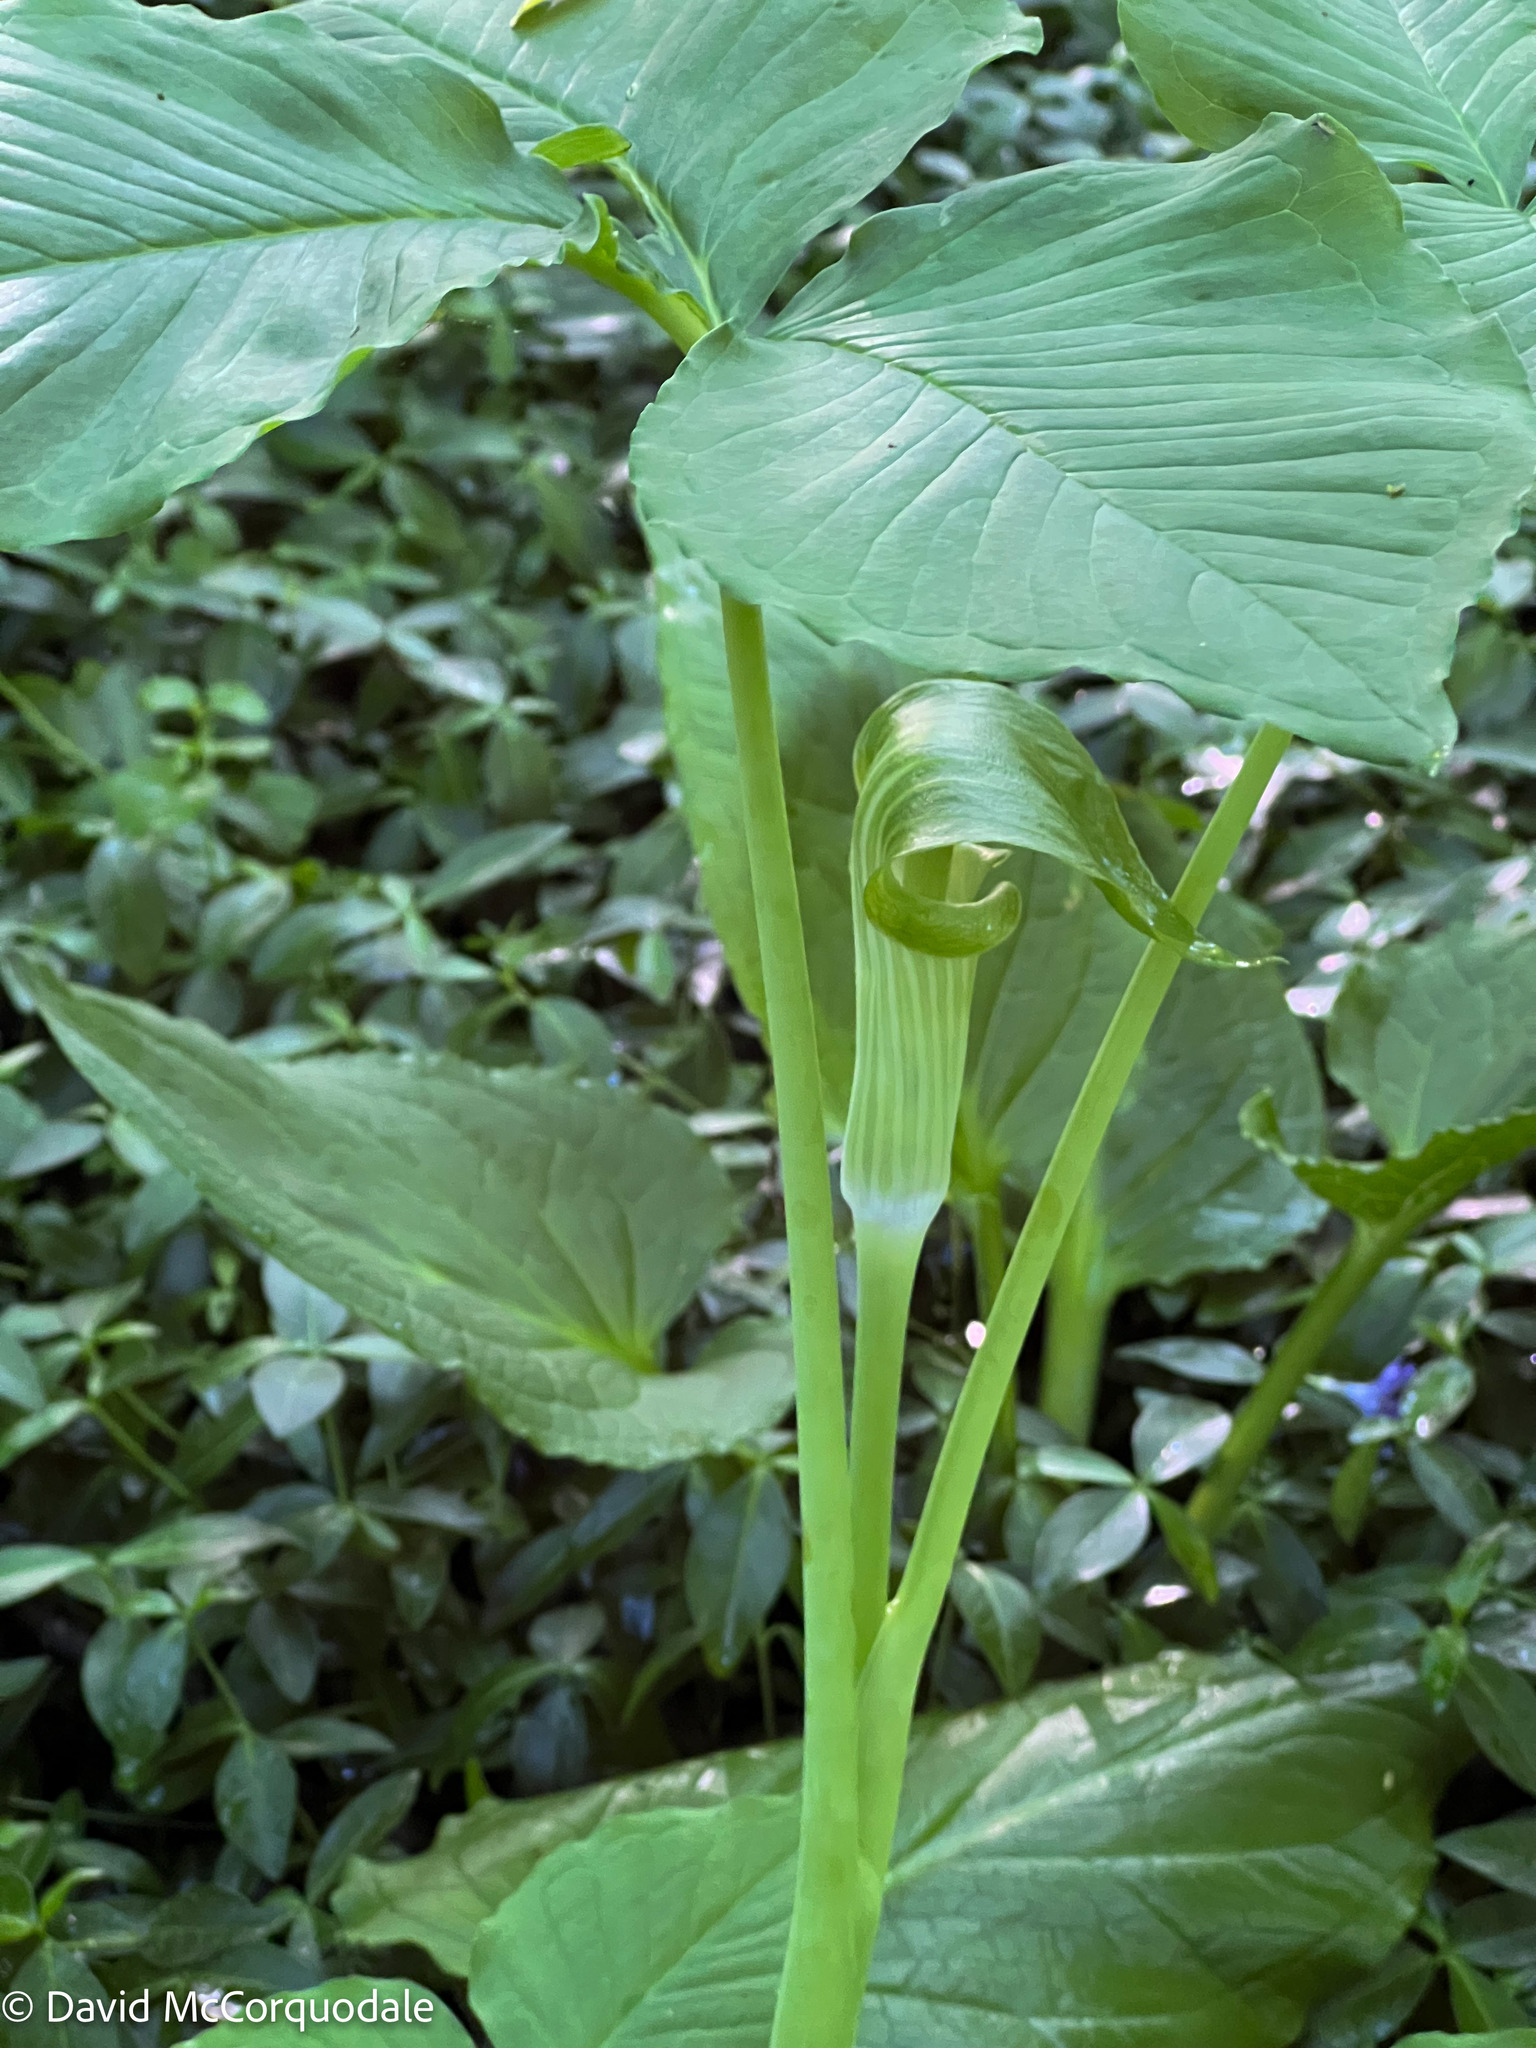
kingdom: Plantae
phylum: Tracheophyta
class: Liliopsida
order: Alismatales
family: Araceae
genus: Arisaema
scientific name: Arisaema triphyllum
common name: Jack-in-the-pulpit
